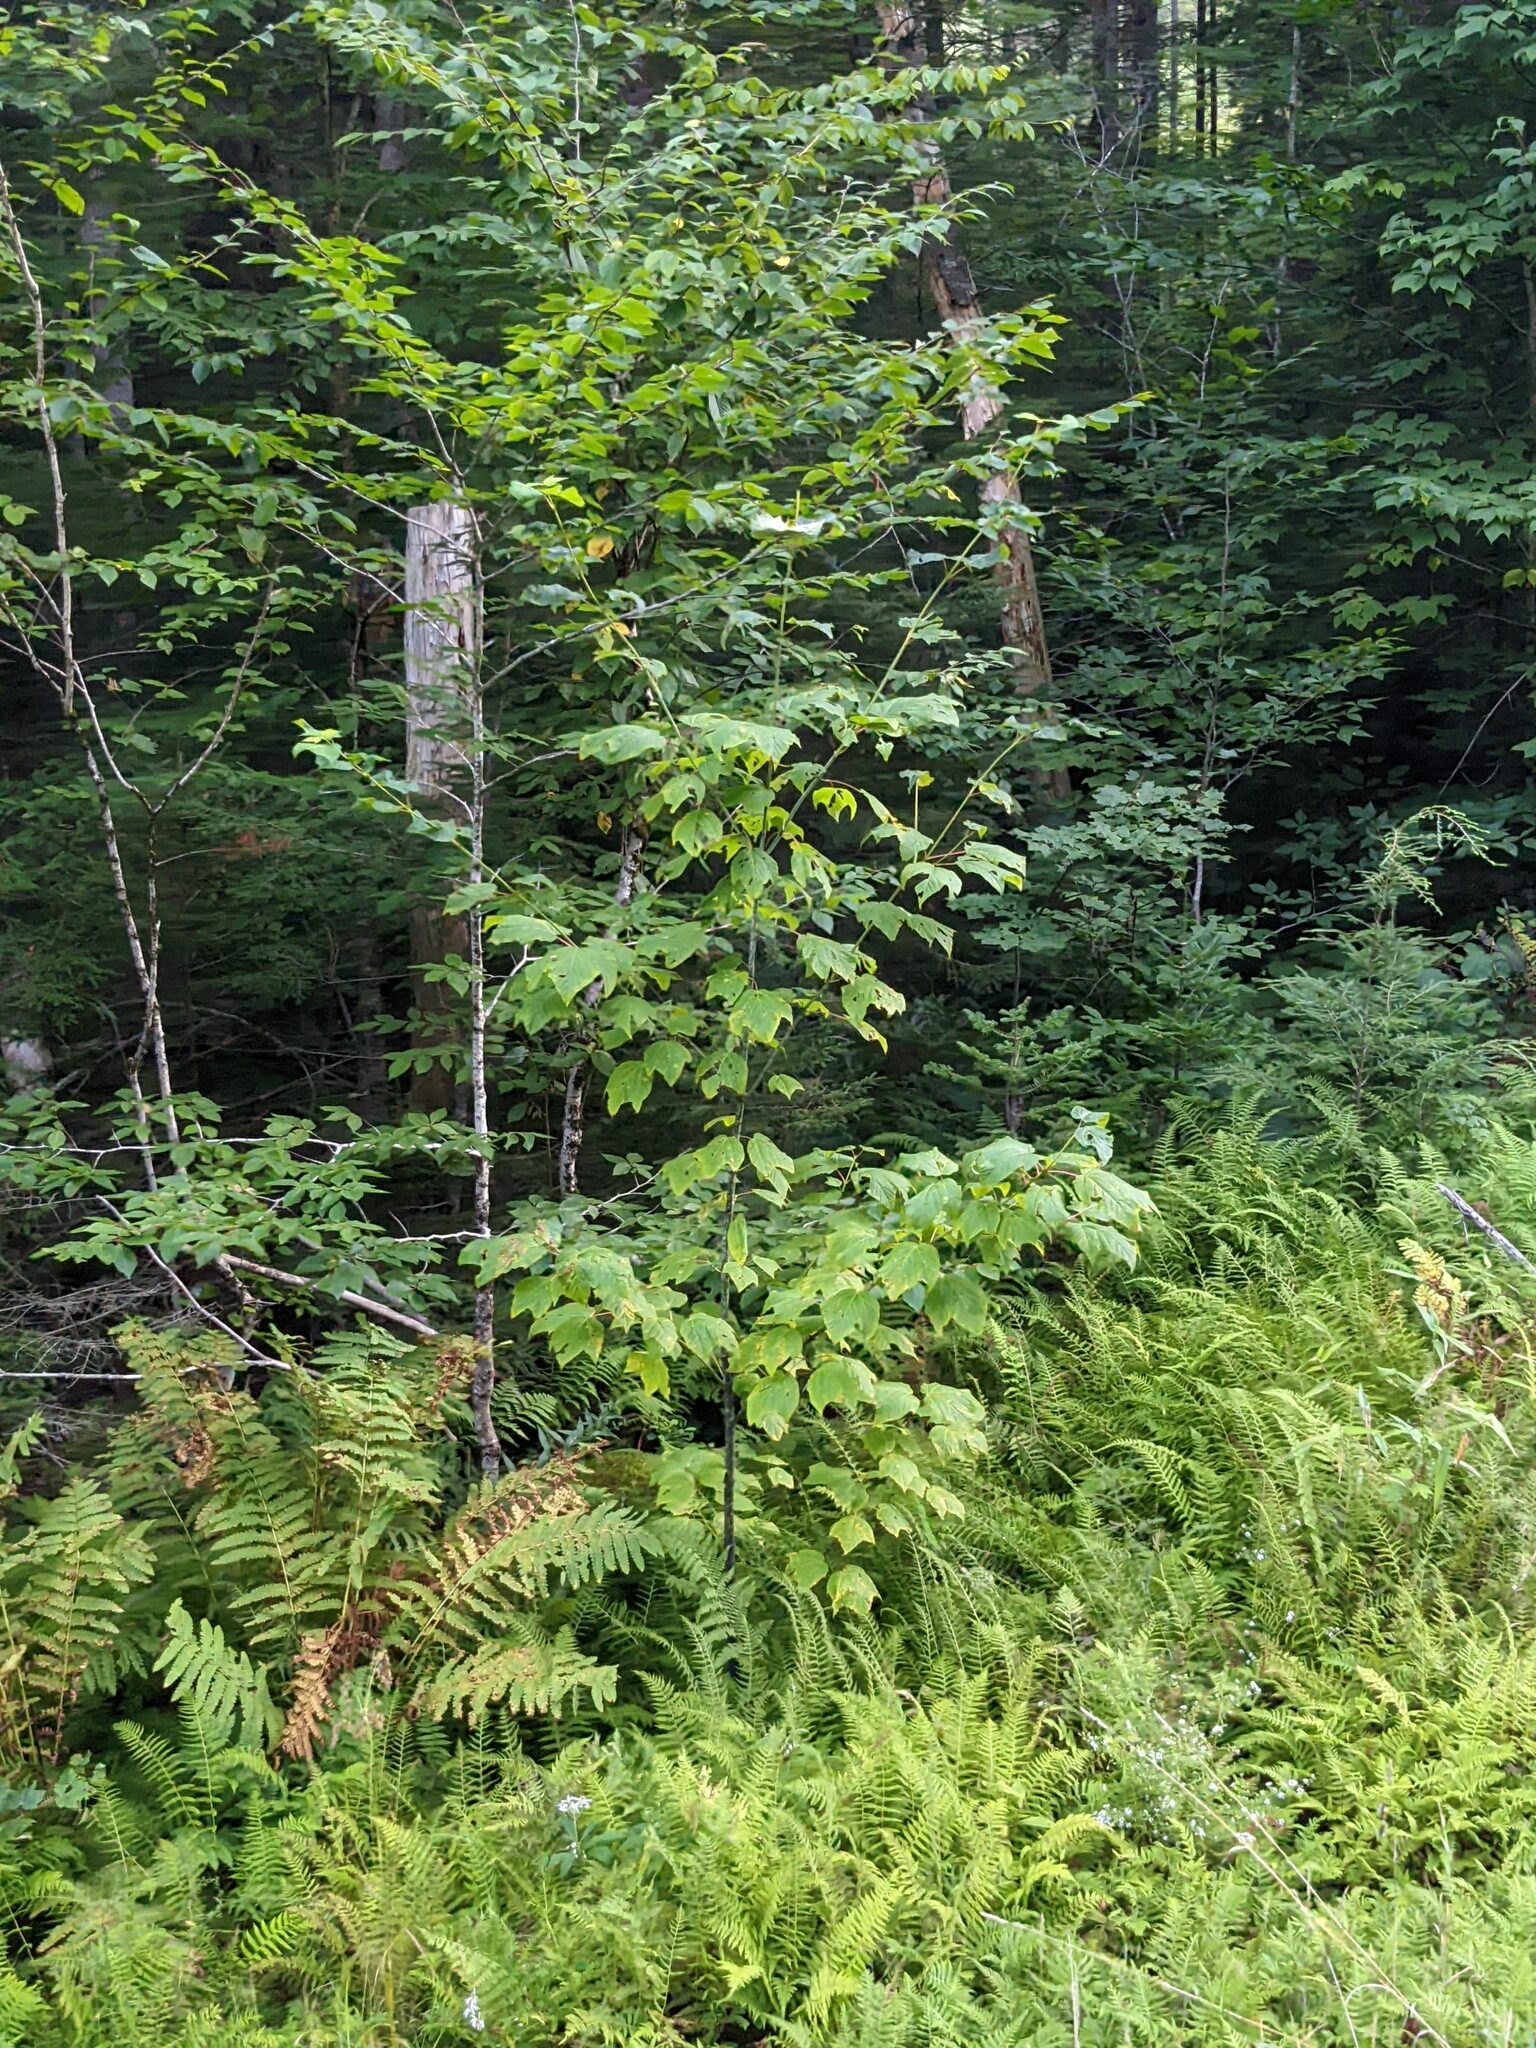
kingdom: Plantae
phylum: Tracheophyta
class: Magnoliopsida
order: Sapindales
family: Sapindaceae
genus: Acer
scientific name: Acer pensylvanicum
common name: Moosewood
